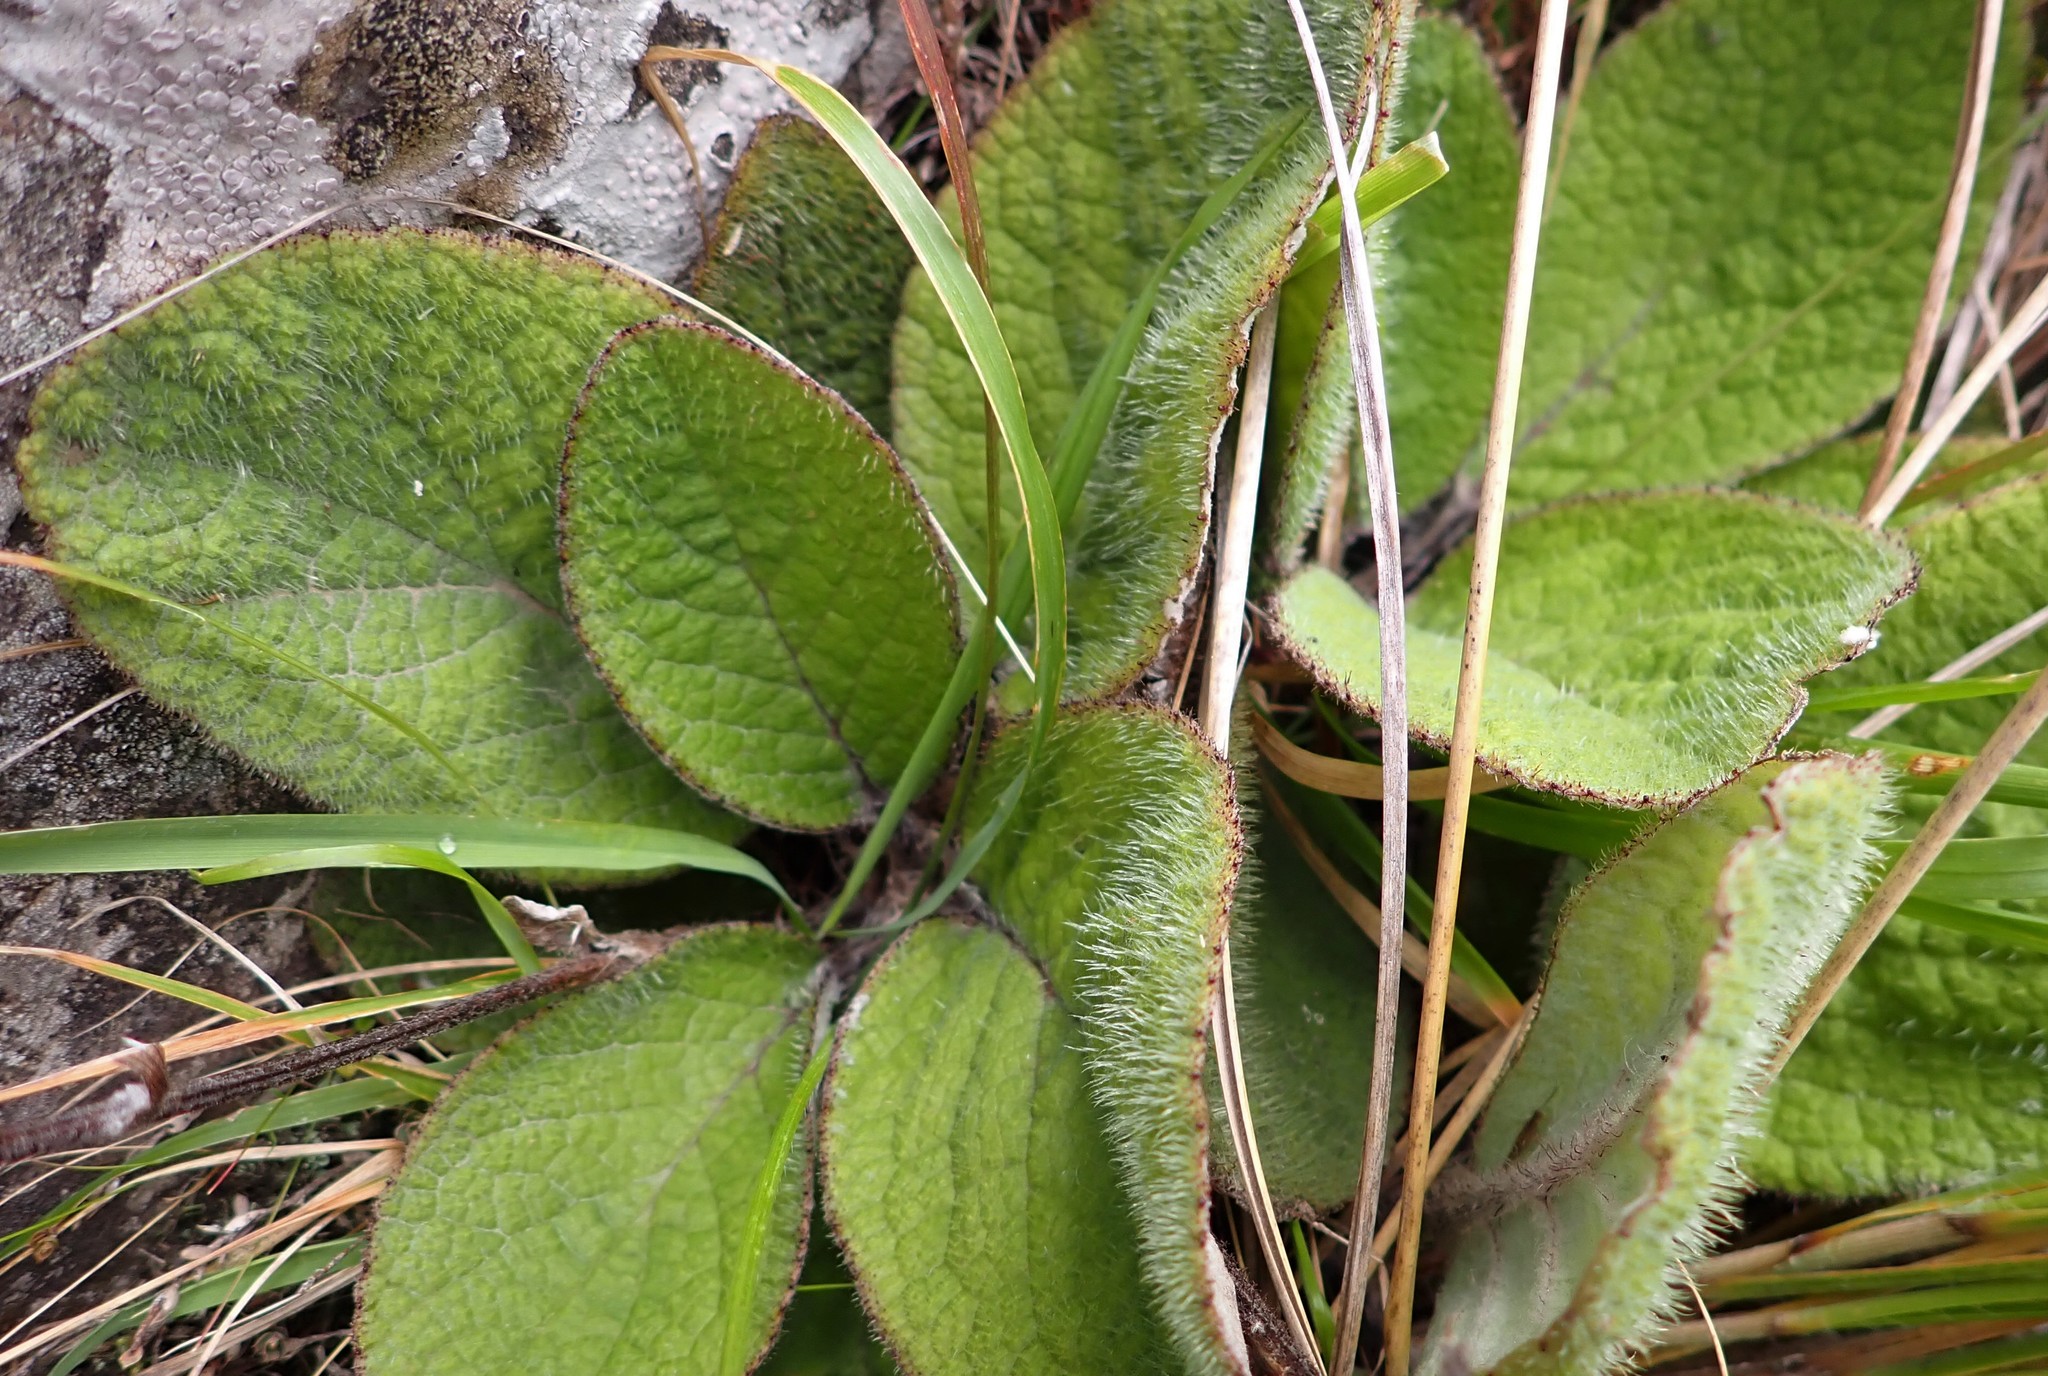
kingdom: Plantae
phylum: Tracheophyta
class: Magnoliopsida
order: Asterales
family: Asteraceae
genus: Brachyglottis
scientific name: Brachyglottis lagopus
